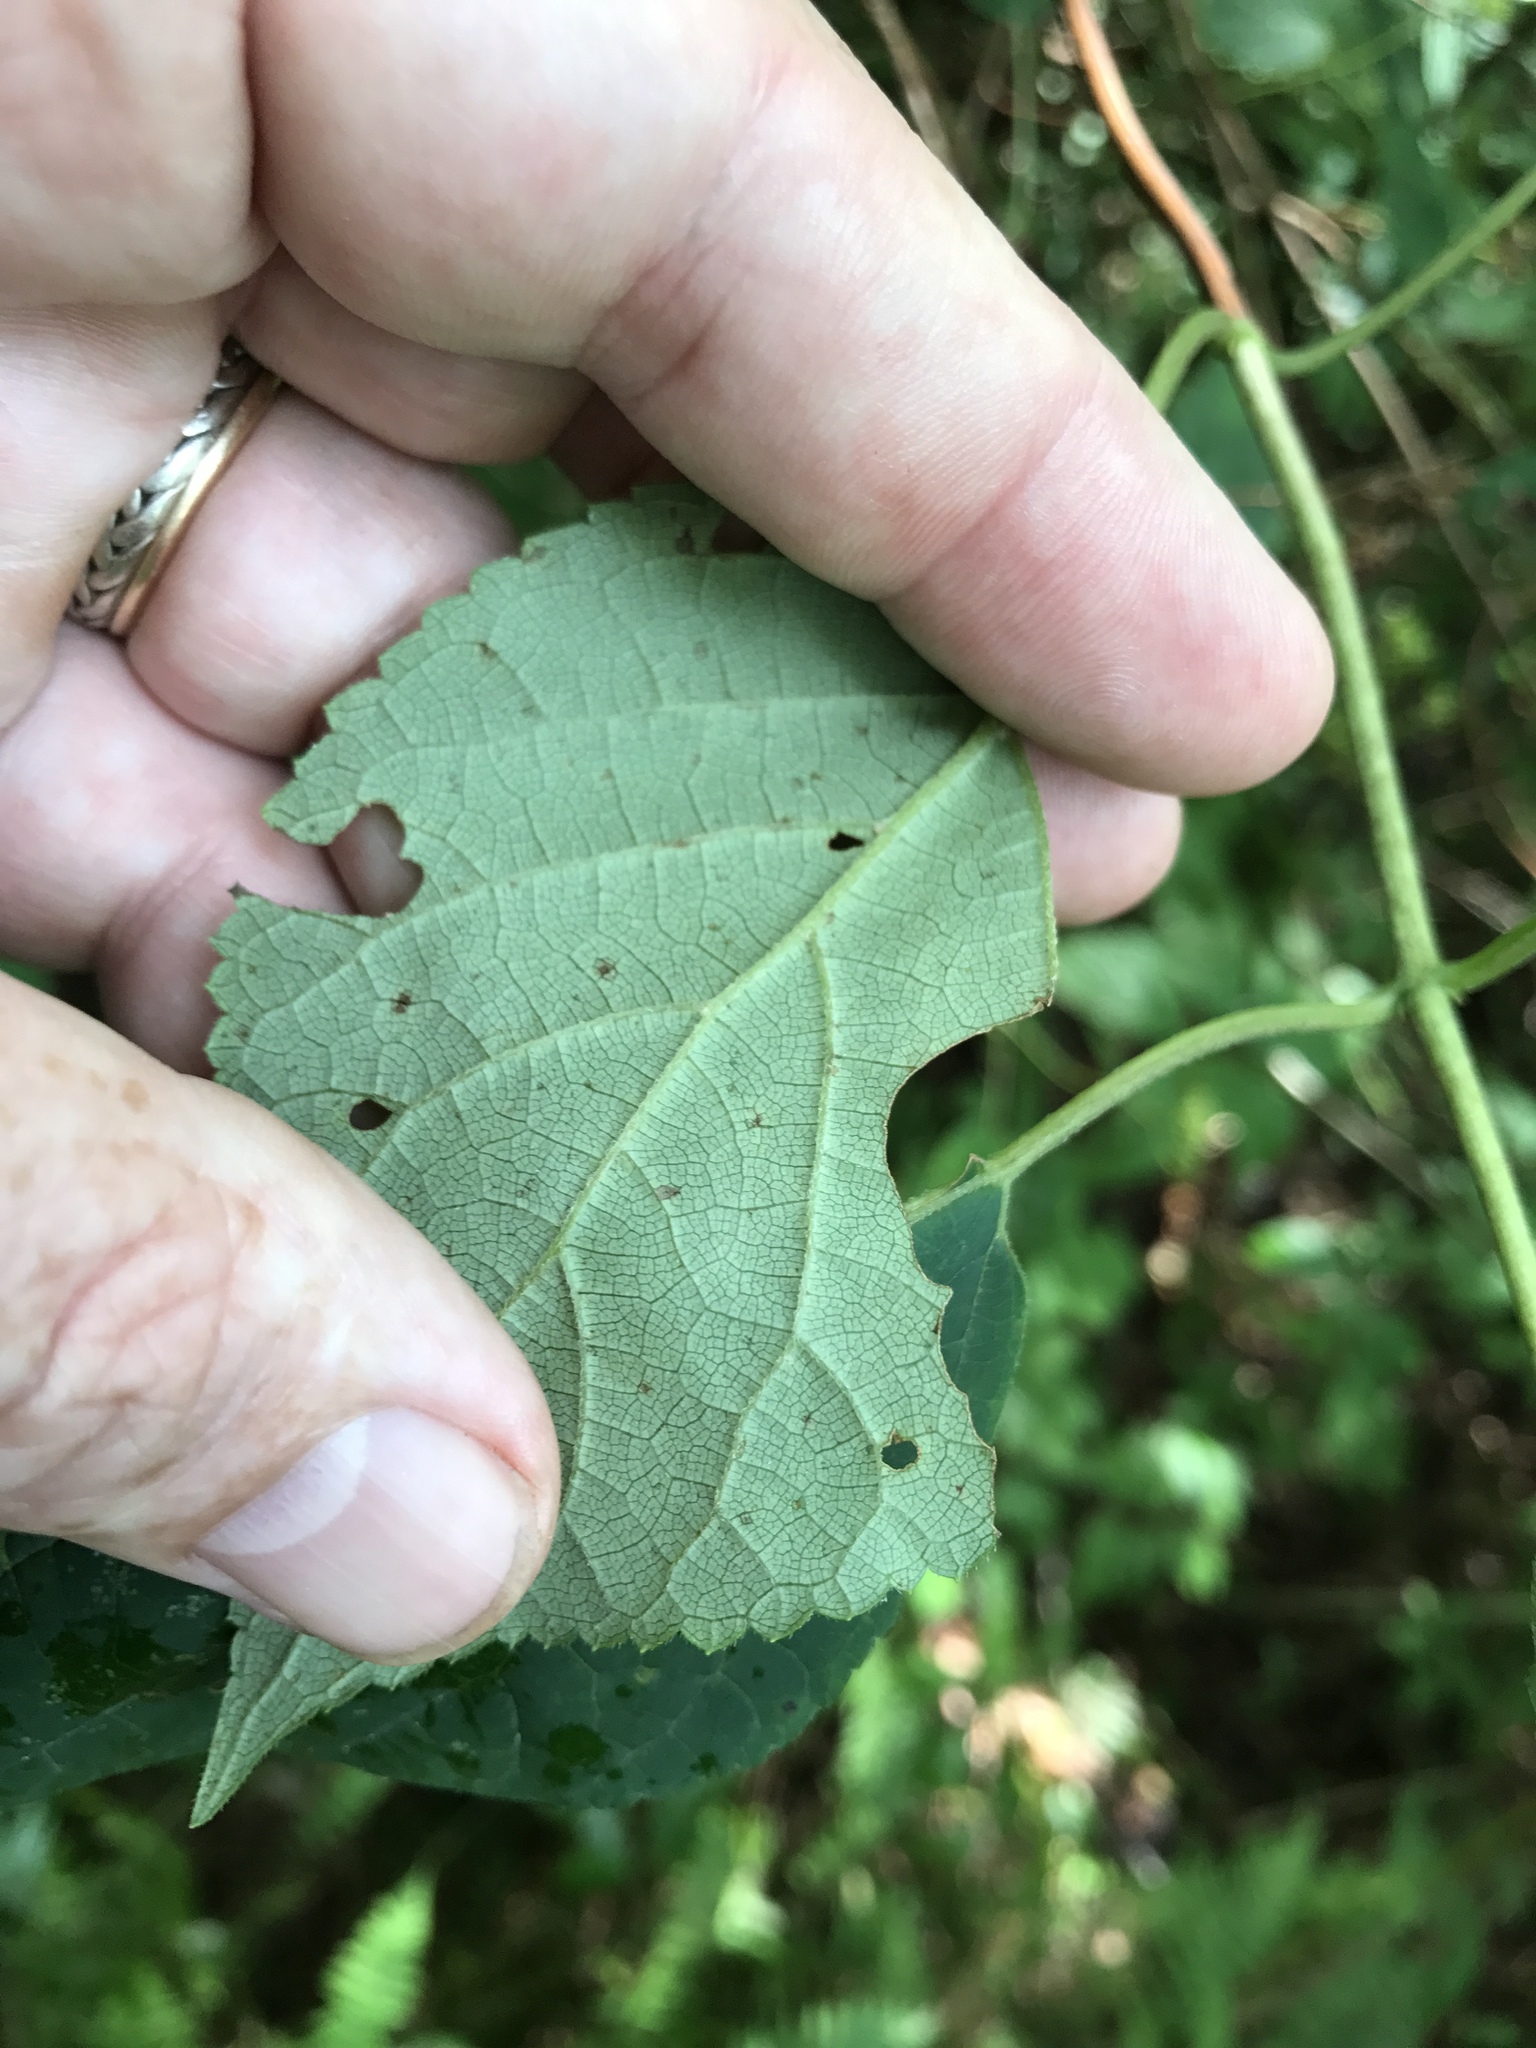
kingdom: Plantae
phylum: Tracheophyta
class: Magnoliopsida
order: Cornales
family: Hydrangeaceae
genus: Hydrangea
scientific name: Hydrangea arborescens
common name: Sevenbark
